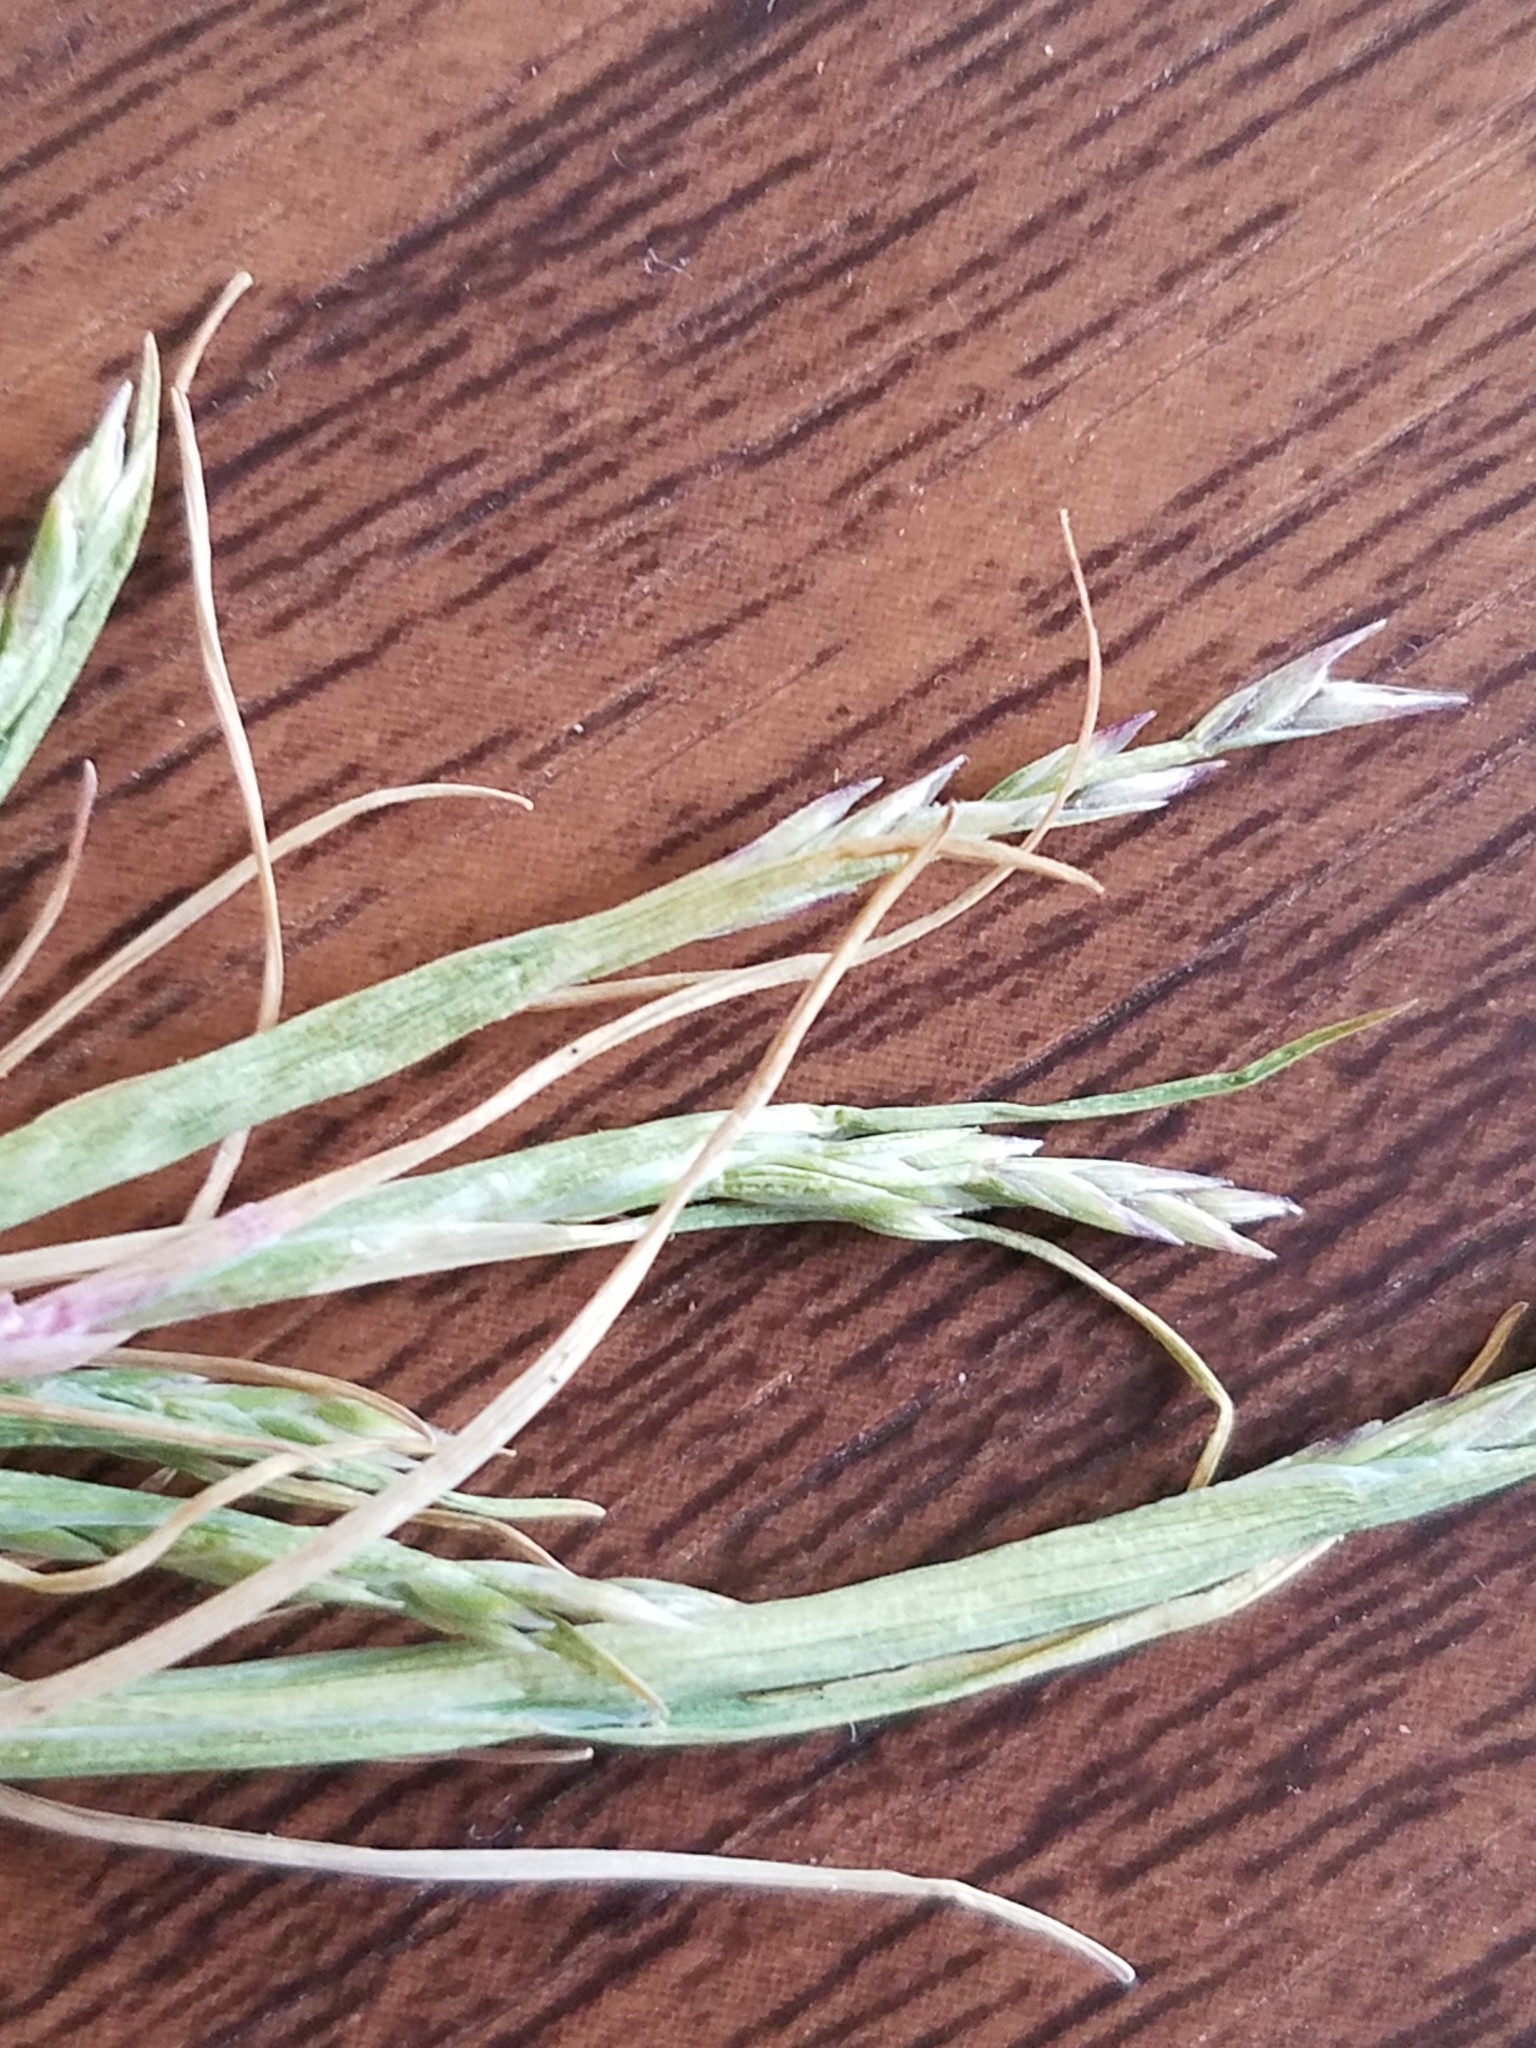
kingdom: Plantae
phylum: Tracheophyta
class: Liliopsida
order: Poales
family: Poaceae
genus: Puccinellia
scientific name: Puccinellia simplex
